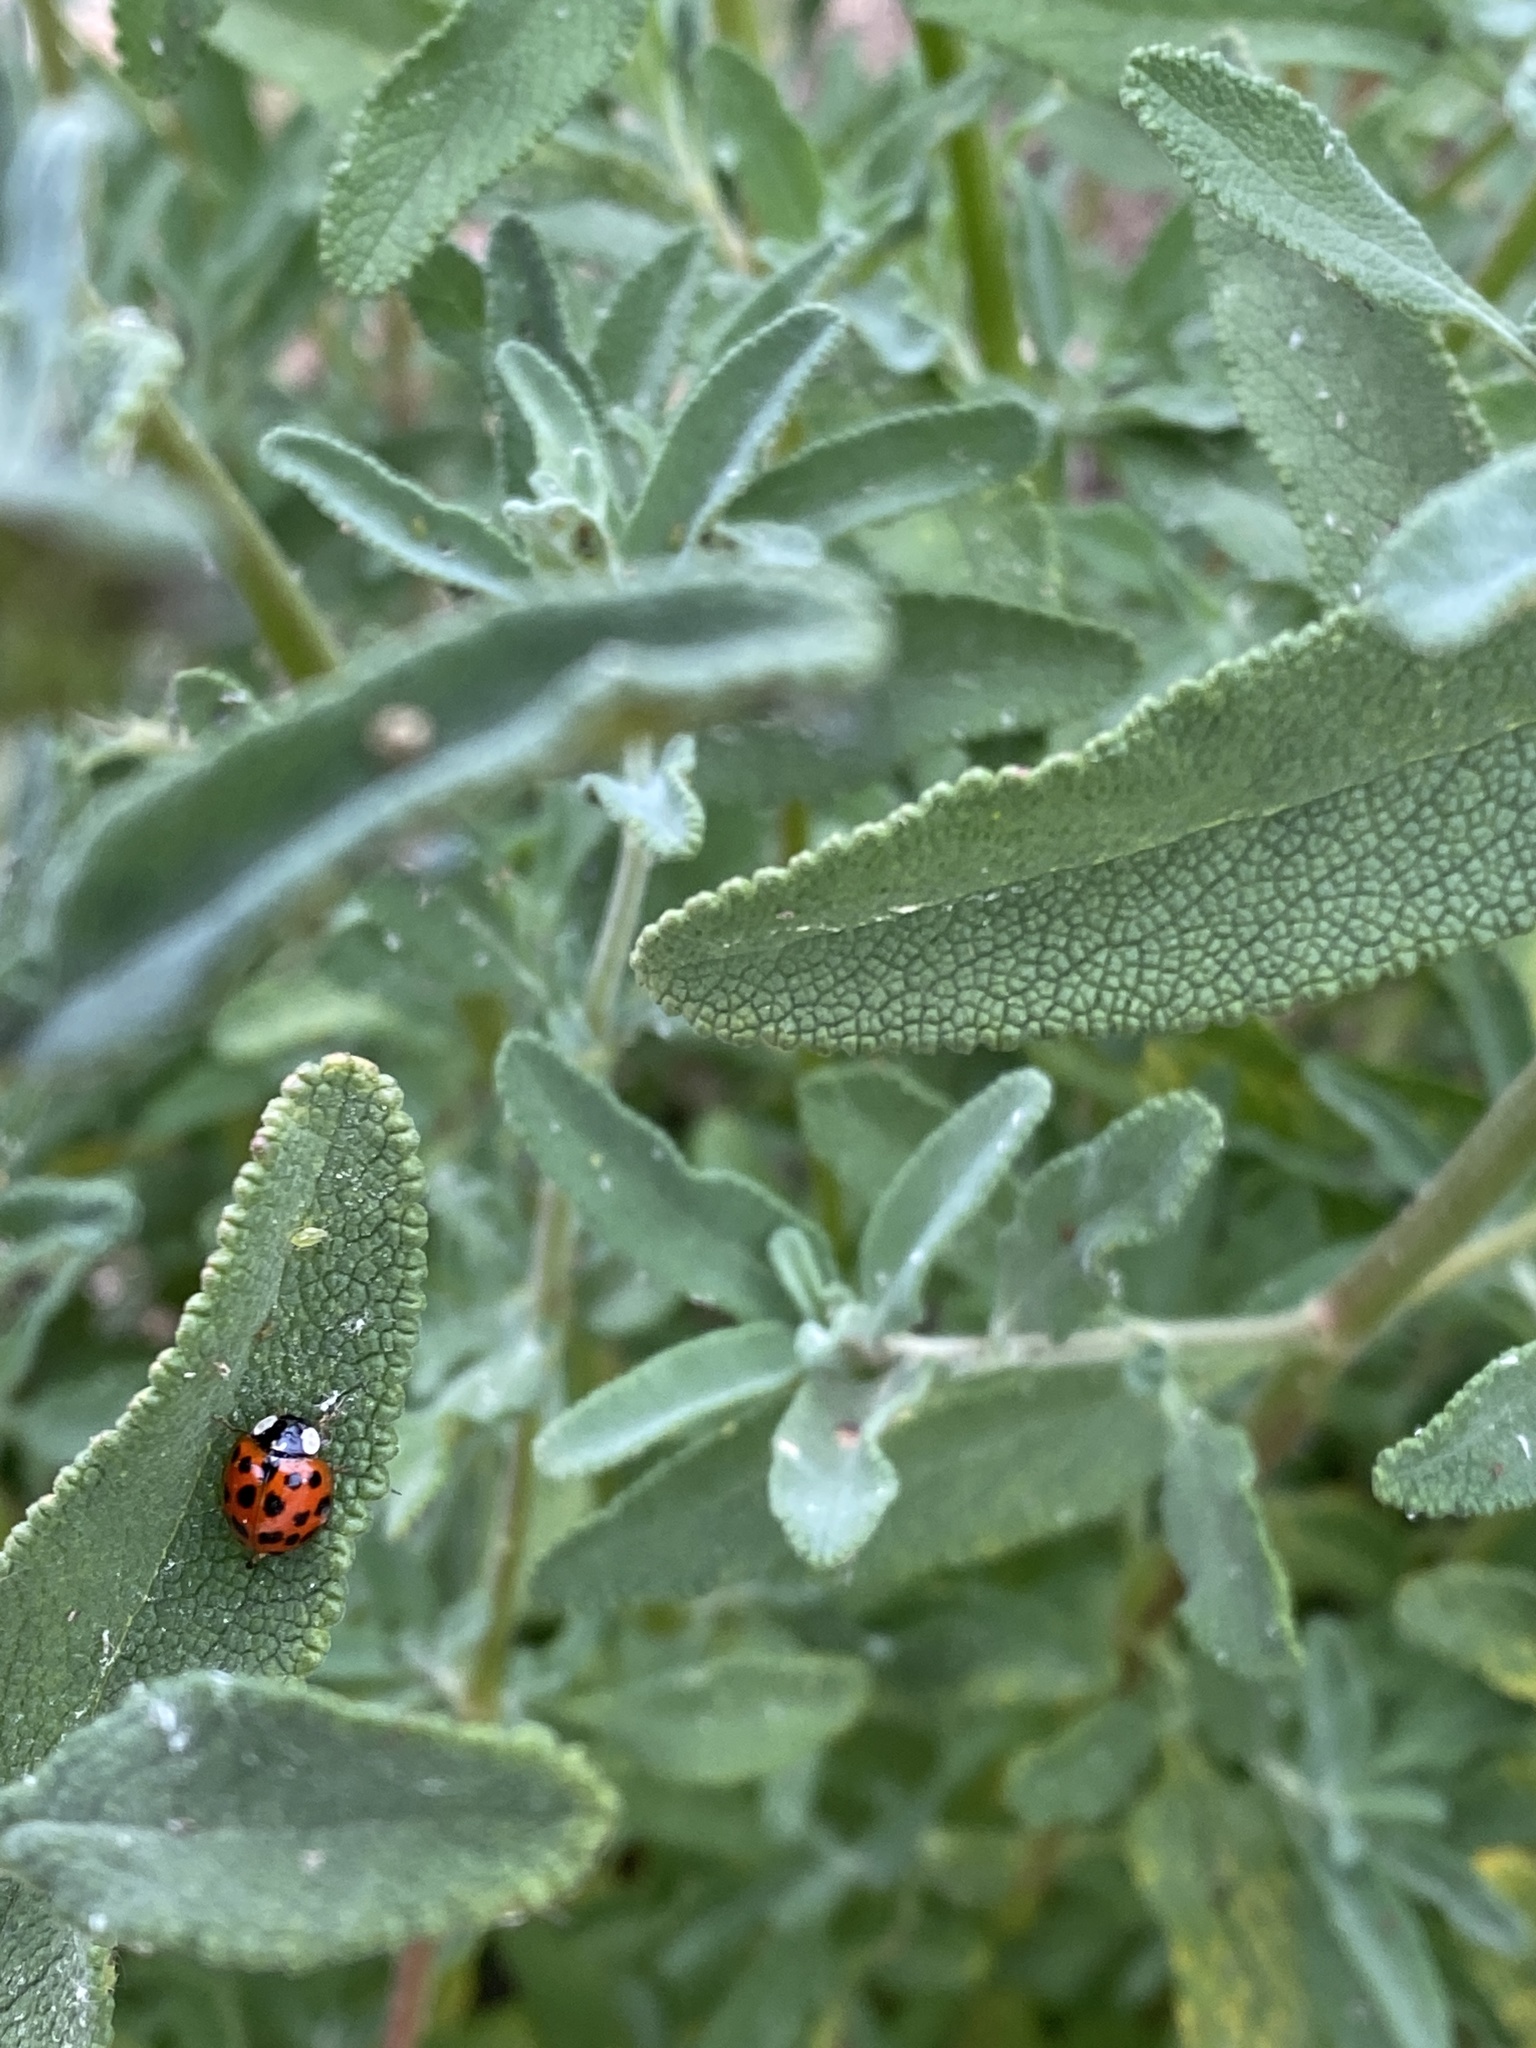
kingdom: Animalia
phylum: Arthropoda
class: Insecta
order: Coleoptera
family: Coccinellidae
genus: Harmonia
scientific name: Harmonia axyridis
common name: Harlequin ladybird
